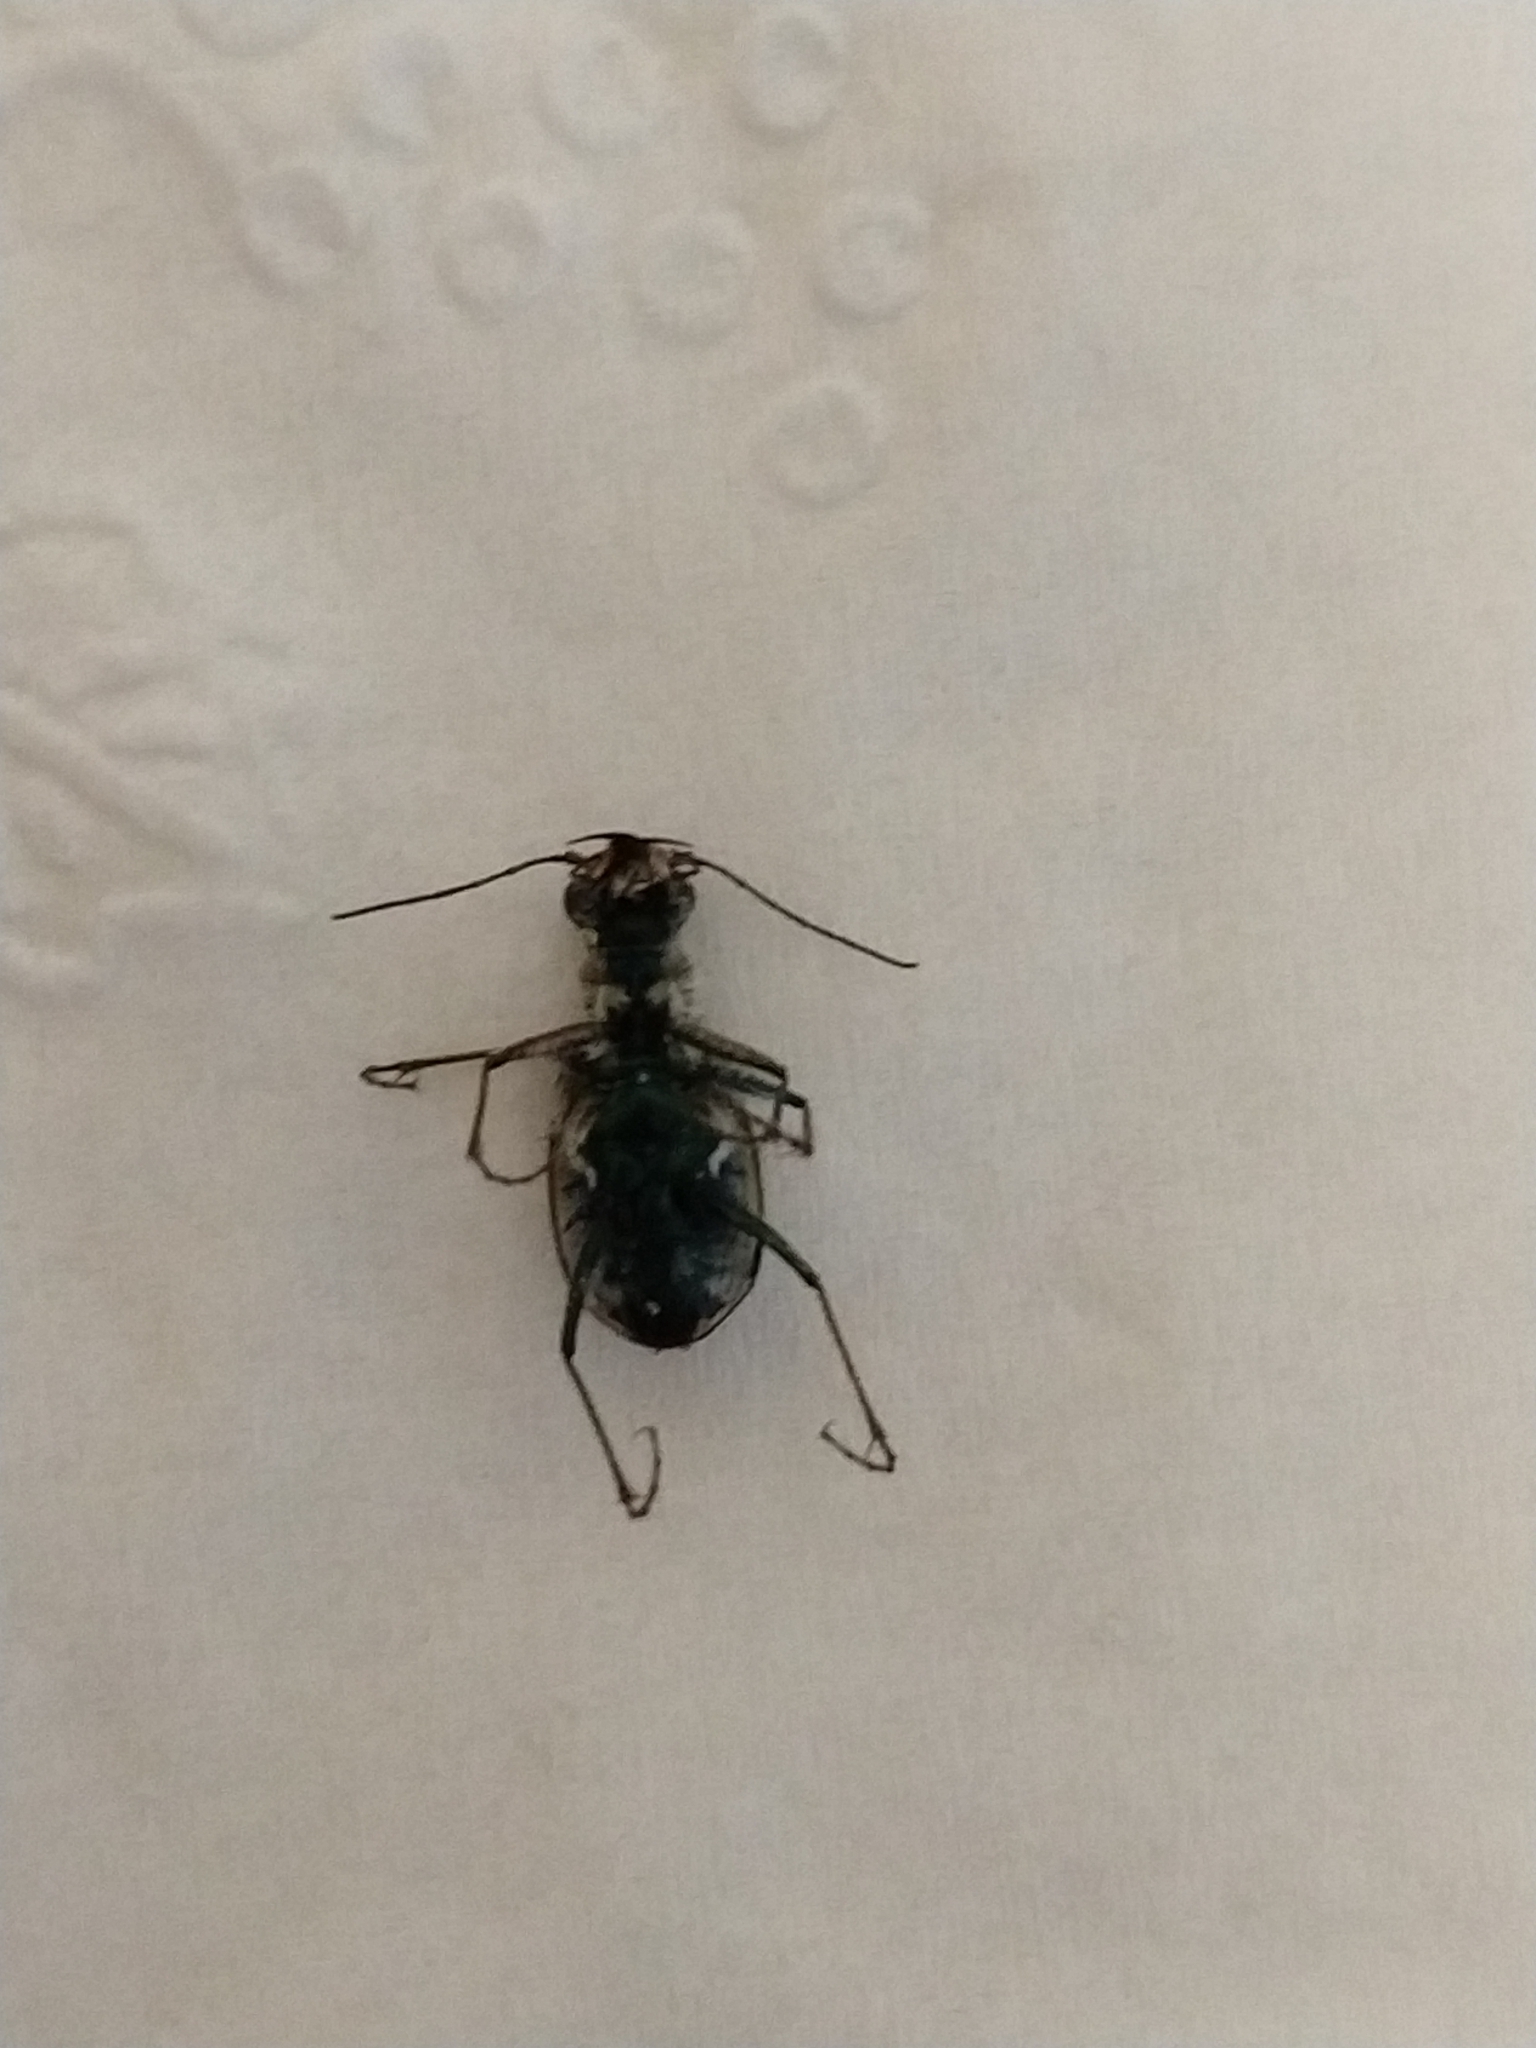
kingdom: Animalia
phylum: Arthropoda
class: Insecta
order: Coleoptera
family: Carabidae
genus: Cicindela
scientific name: Cicindela repanda
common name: Bronzed tiger beetle
